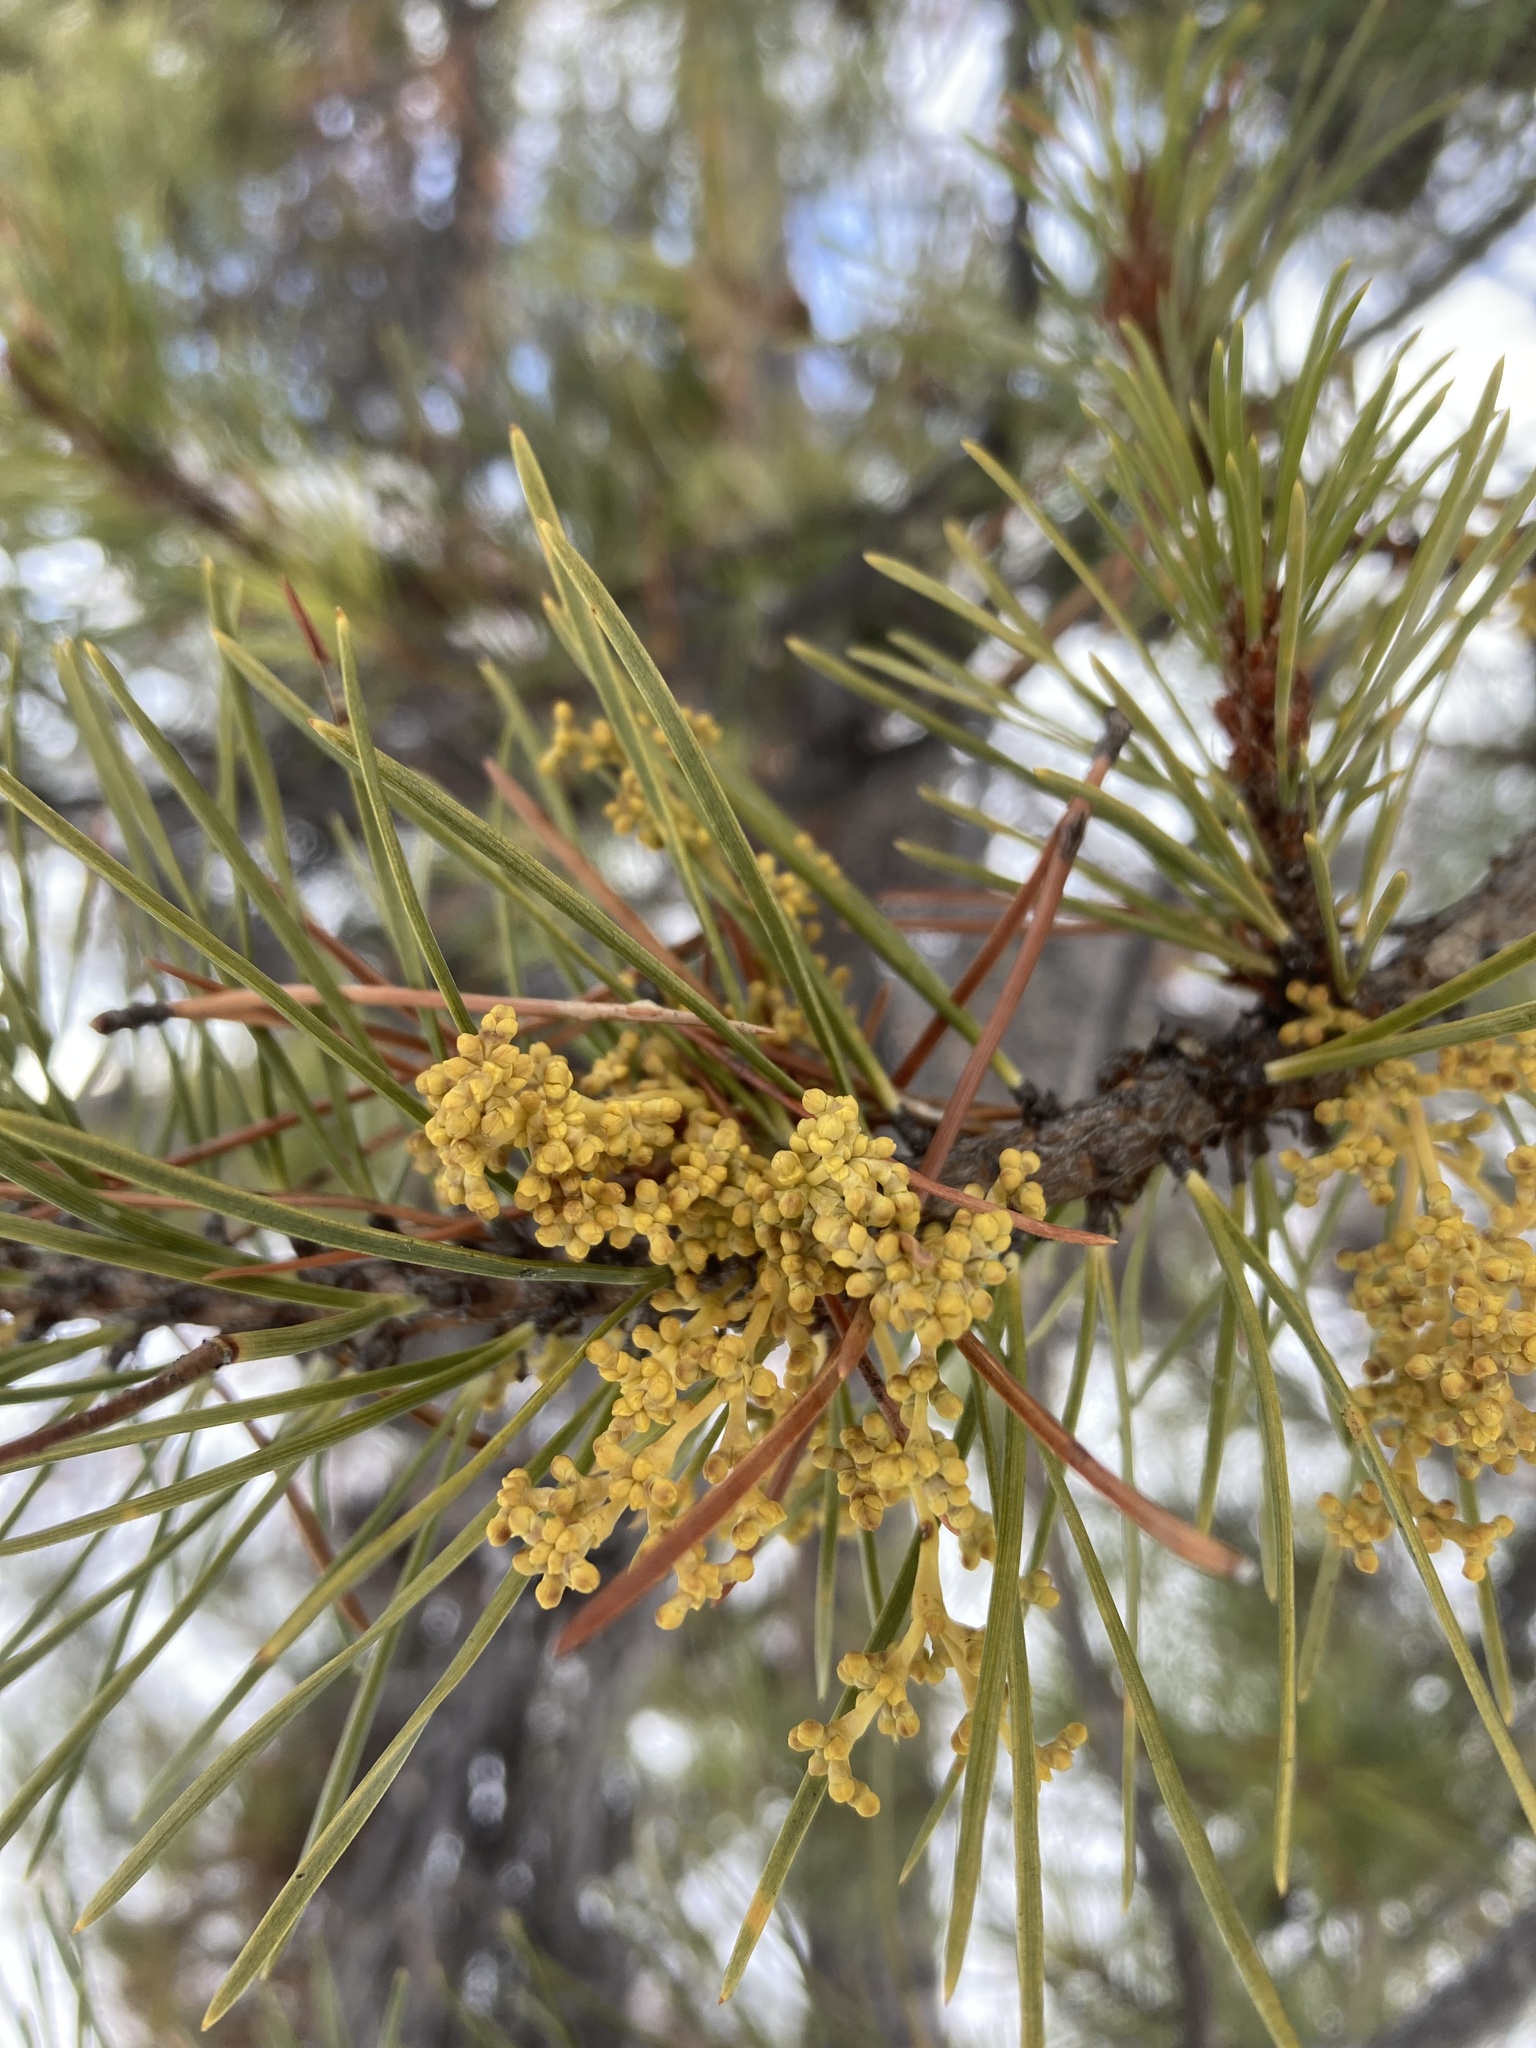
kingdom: Plantae
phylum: Tracheophyta
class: Magnoliopsida
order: Santalales
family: Viscaceae
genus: Arceuthobium
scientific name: Arceuthobium americanum
